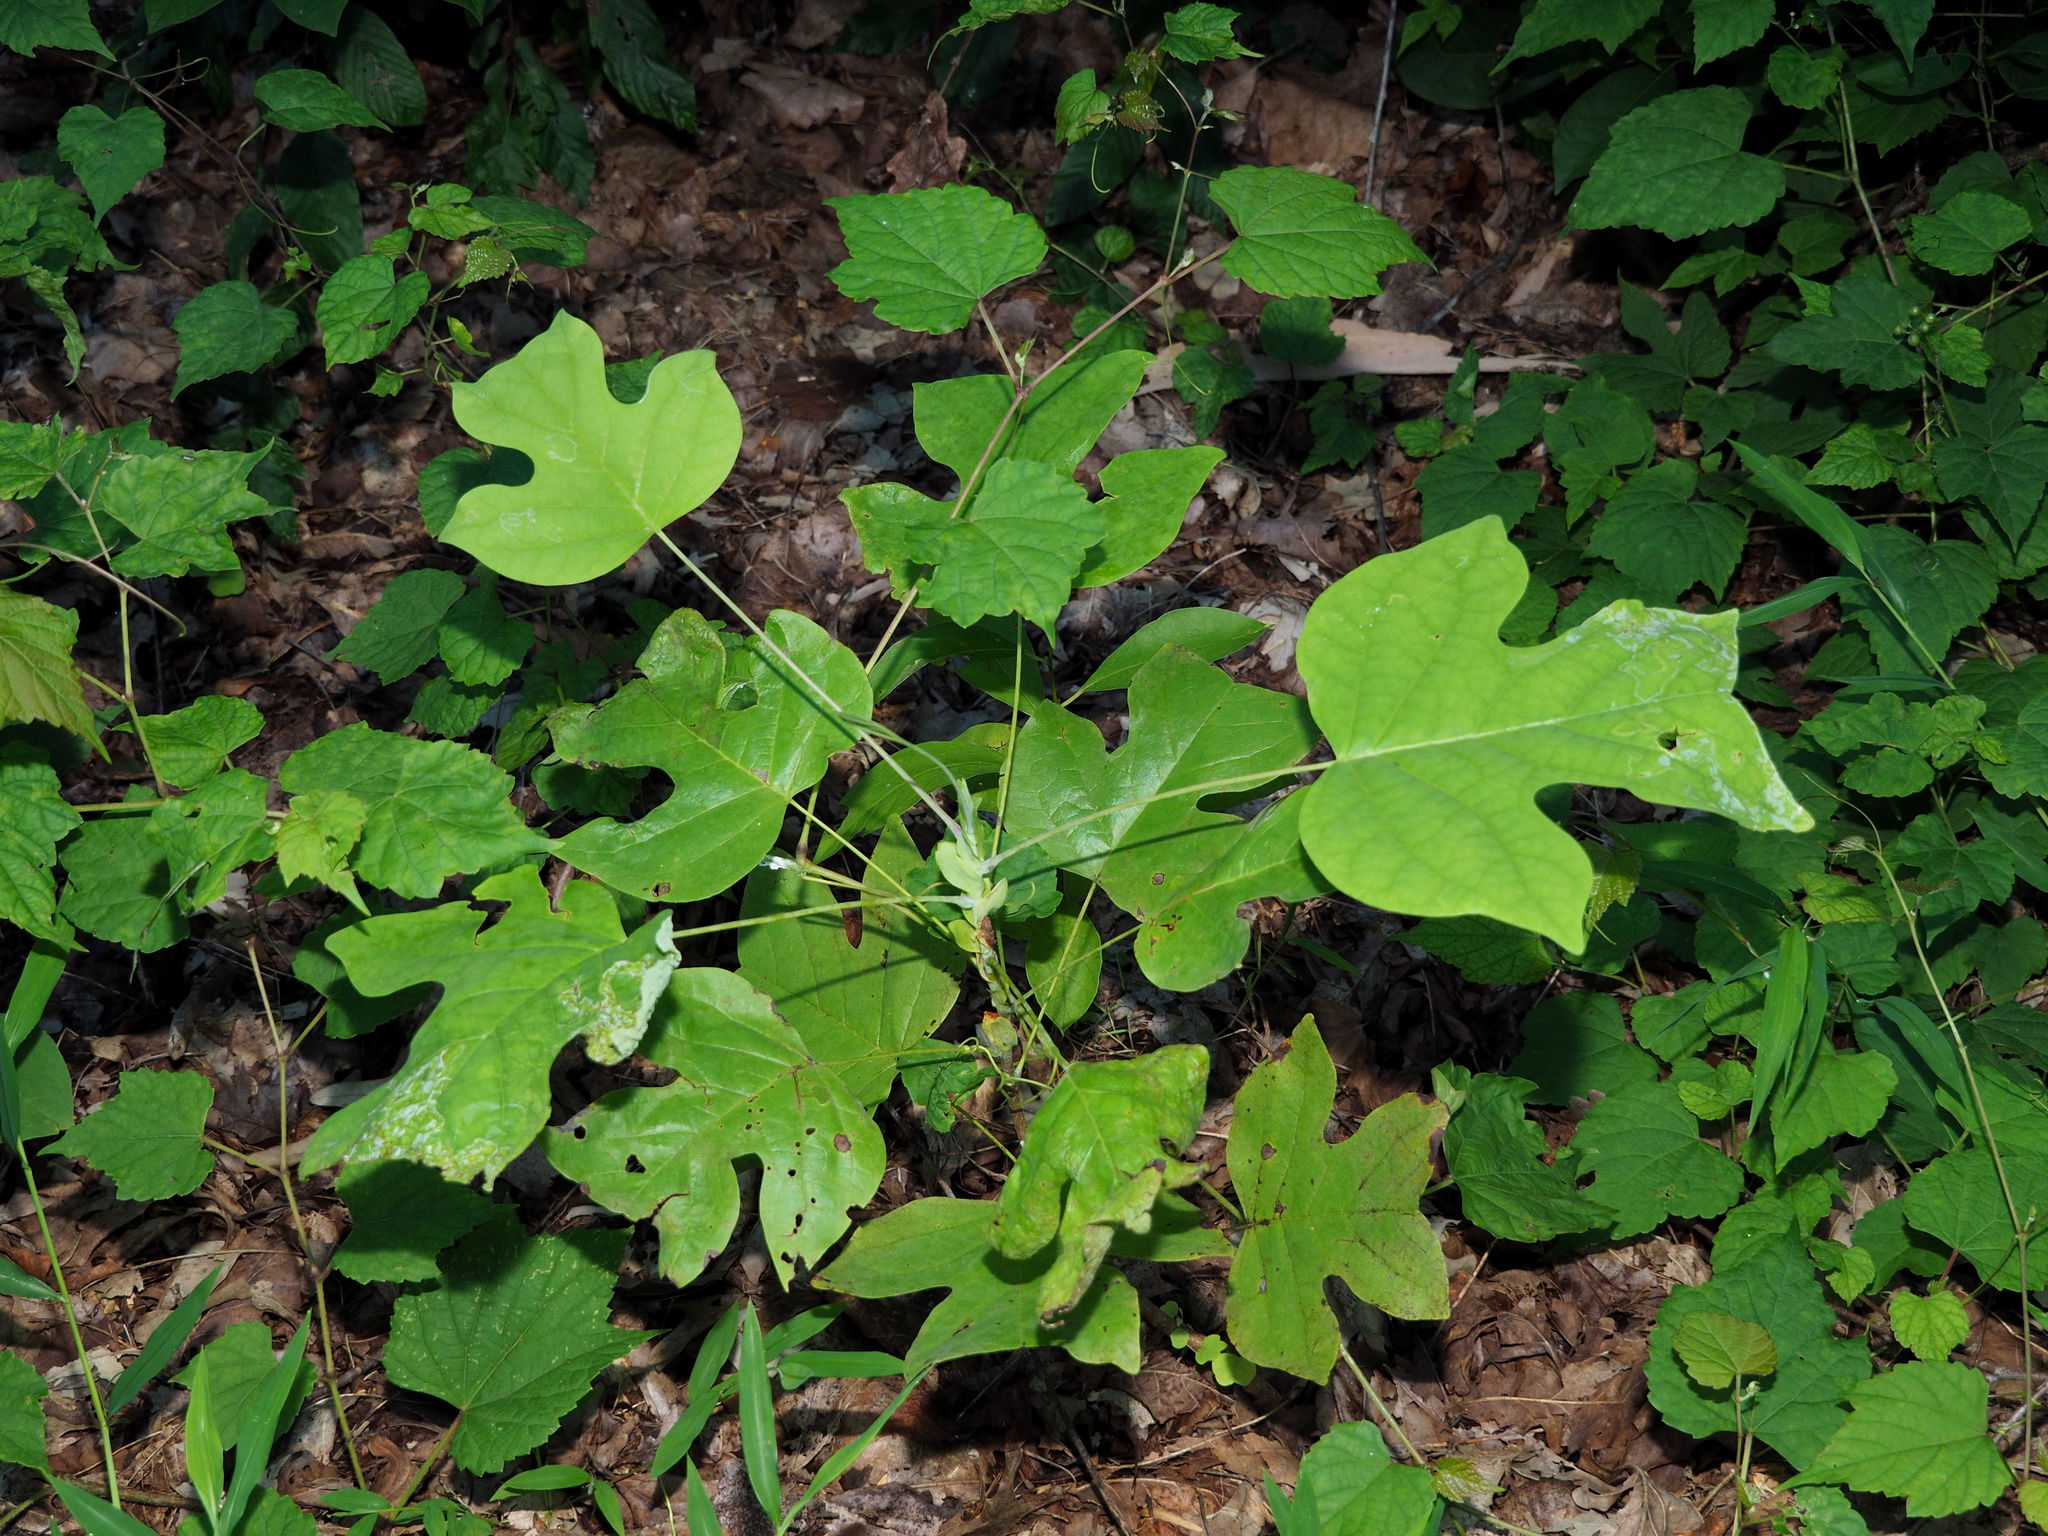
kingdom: Plantae
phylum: Tracheophyta
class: Magnoliopsida
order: Magnoliales
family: Magnoliaceae
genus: Liriodendron
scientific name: Liriodendron tulipifera
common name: Tulip tree
